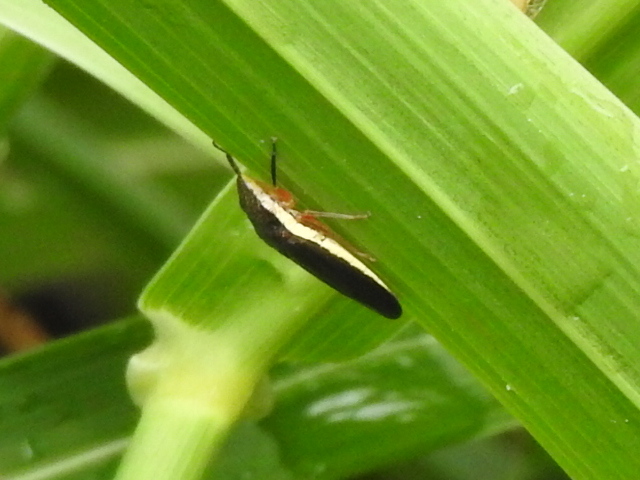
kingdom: Animalia
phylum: Arthropoda
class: Insecta
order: Hemiptera
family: Cicadellidae
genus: Homalodisca
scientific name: Homalodisca insolita
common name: Johnson grass sharpshooter
